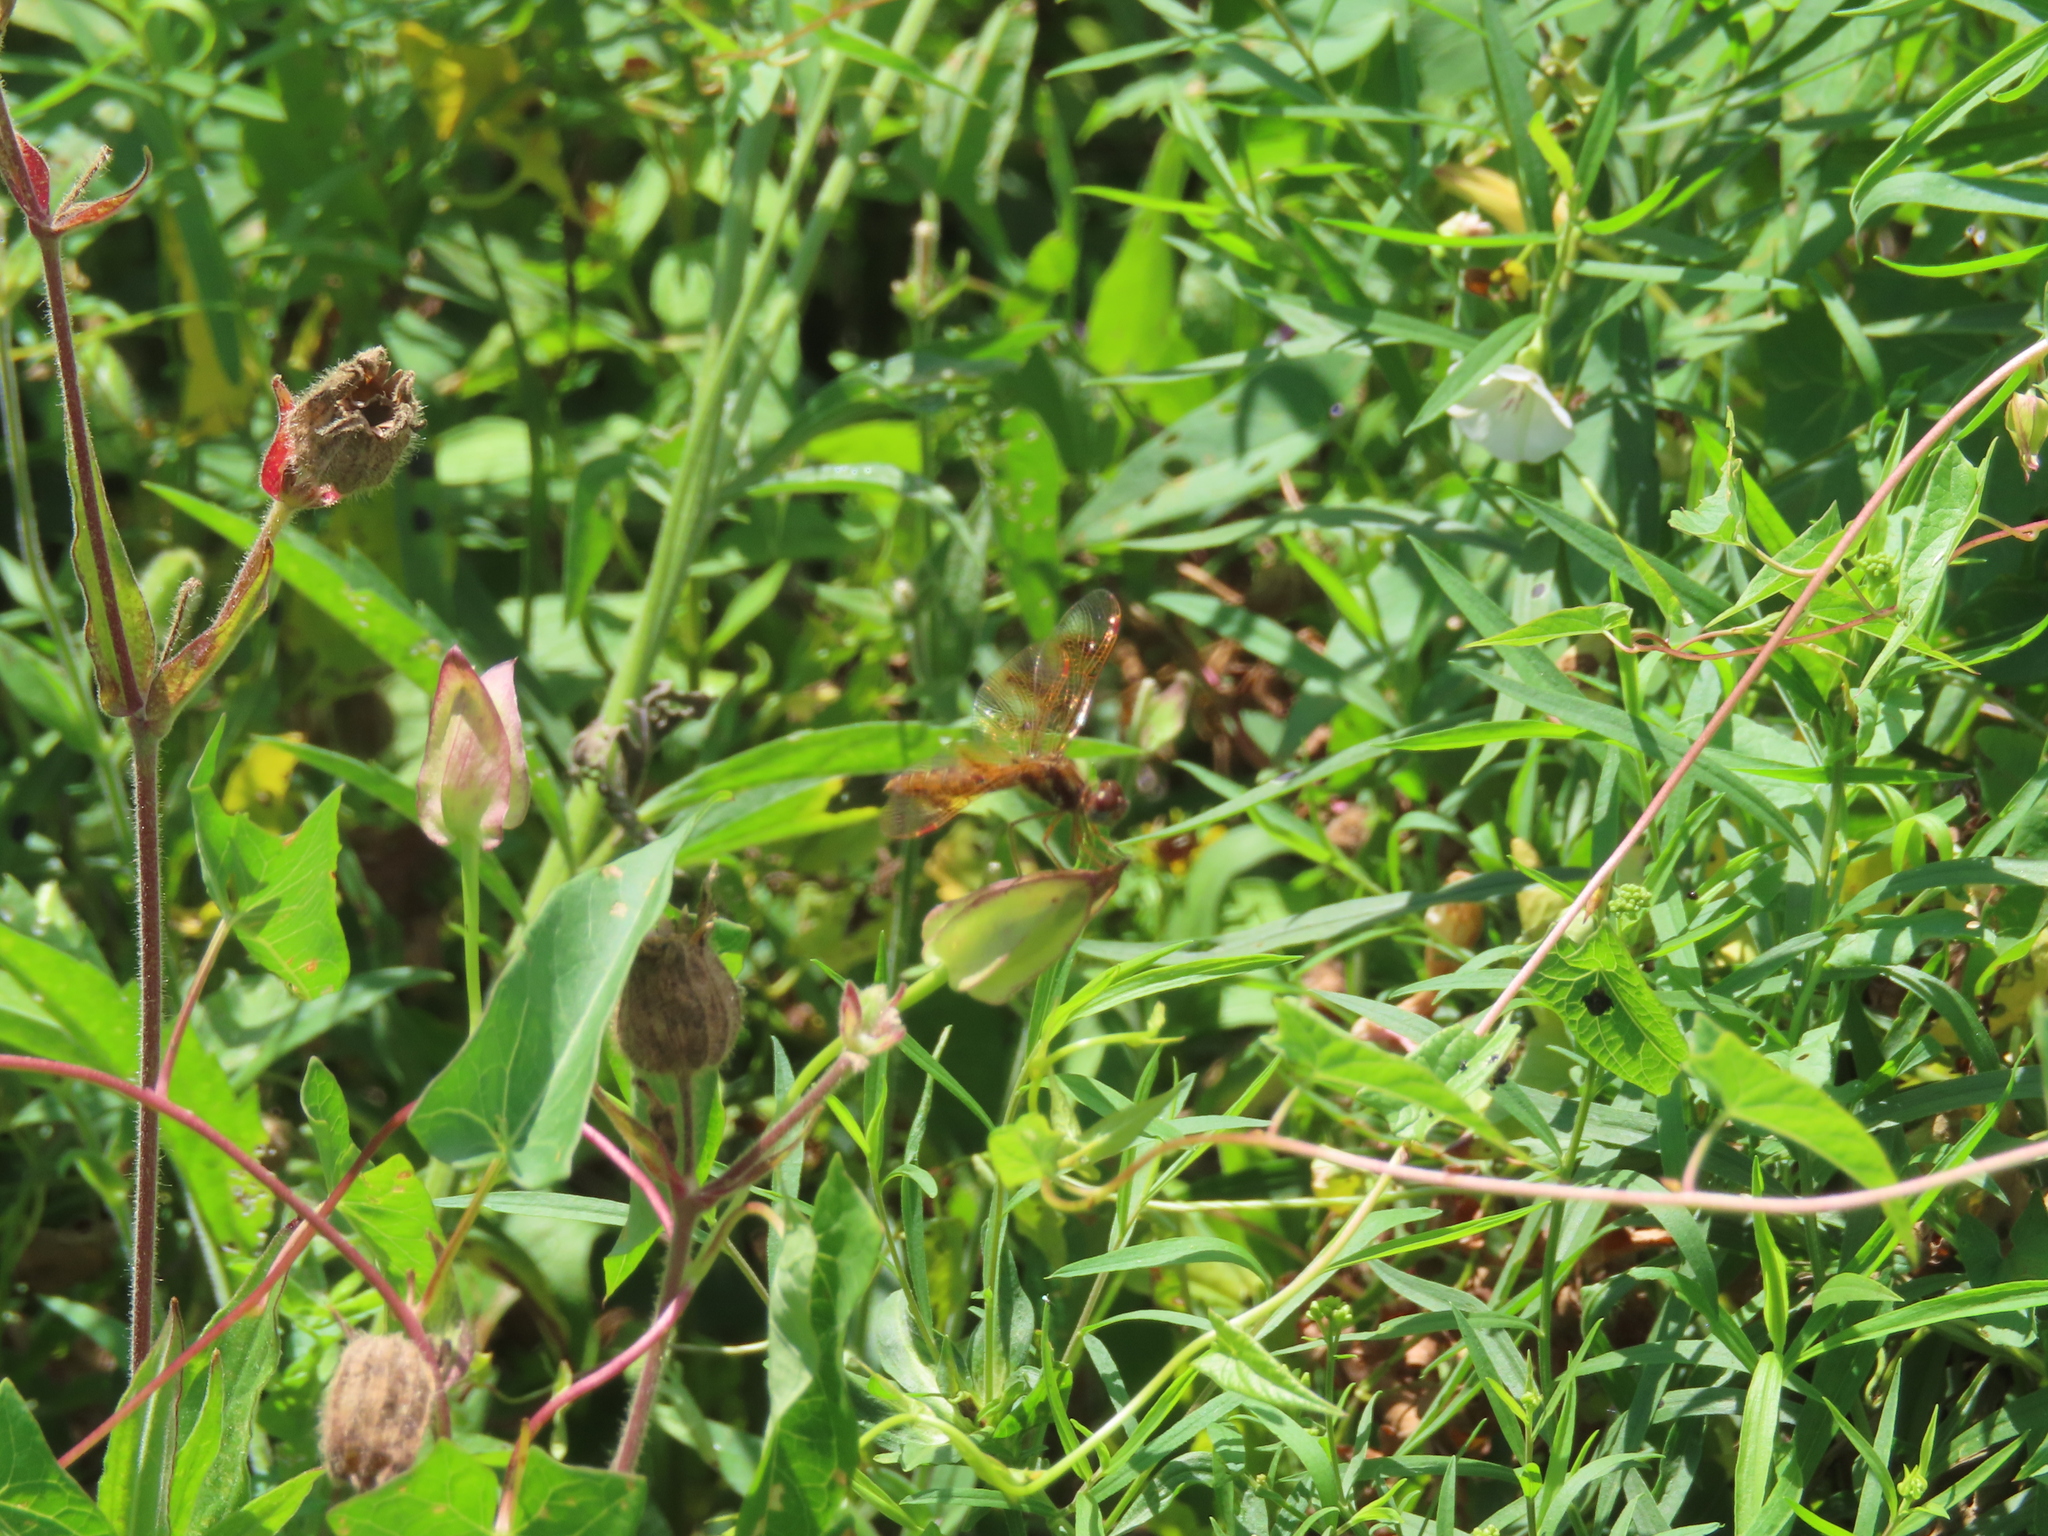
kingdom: Animalia
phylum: Arthropoda
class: Insecta
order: Odonata
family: Libellulidae
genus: Perithemis
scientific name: Perithemis tenera
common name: Eastern amberwing
